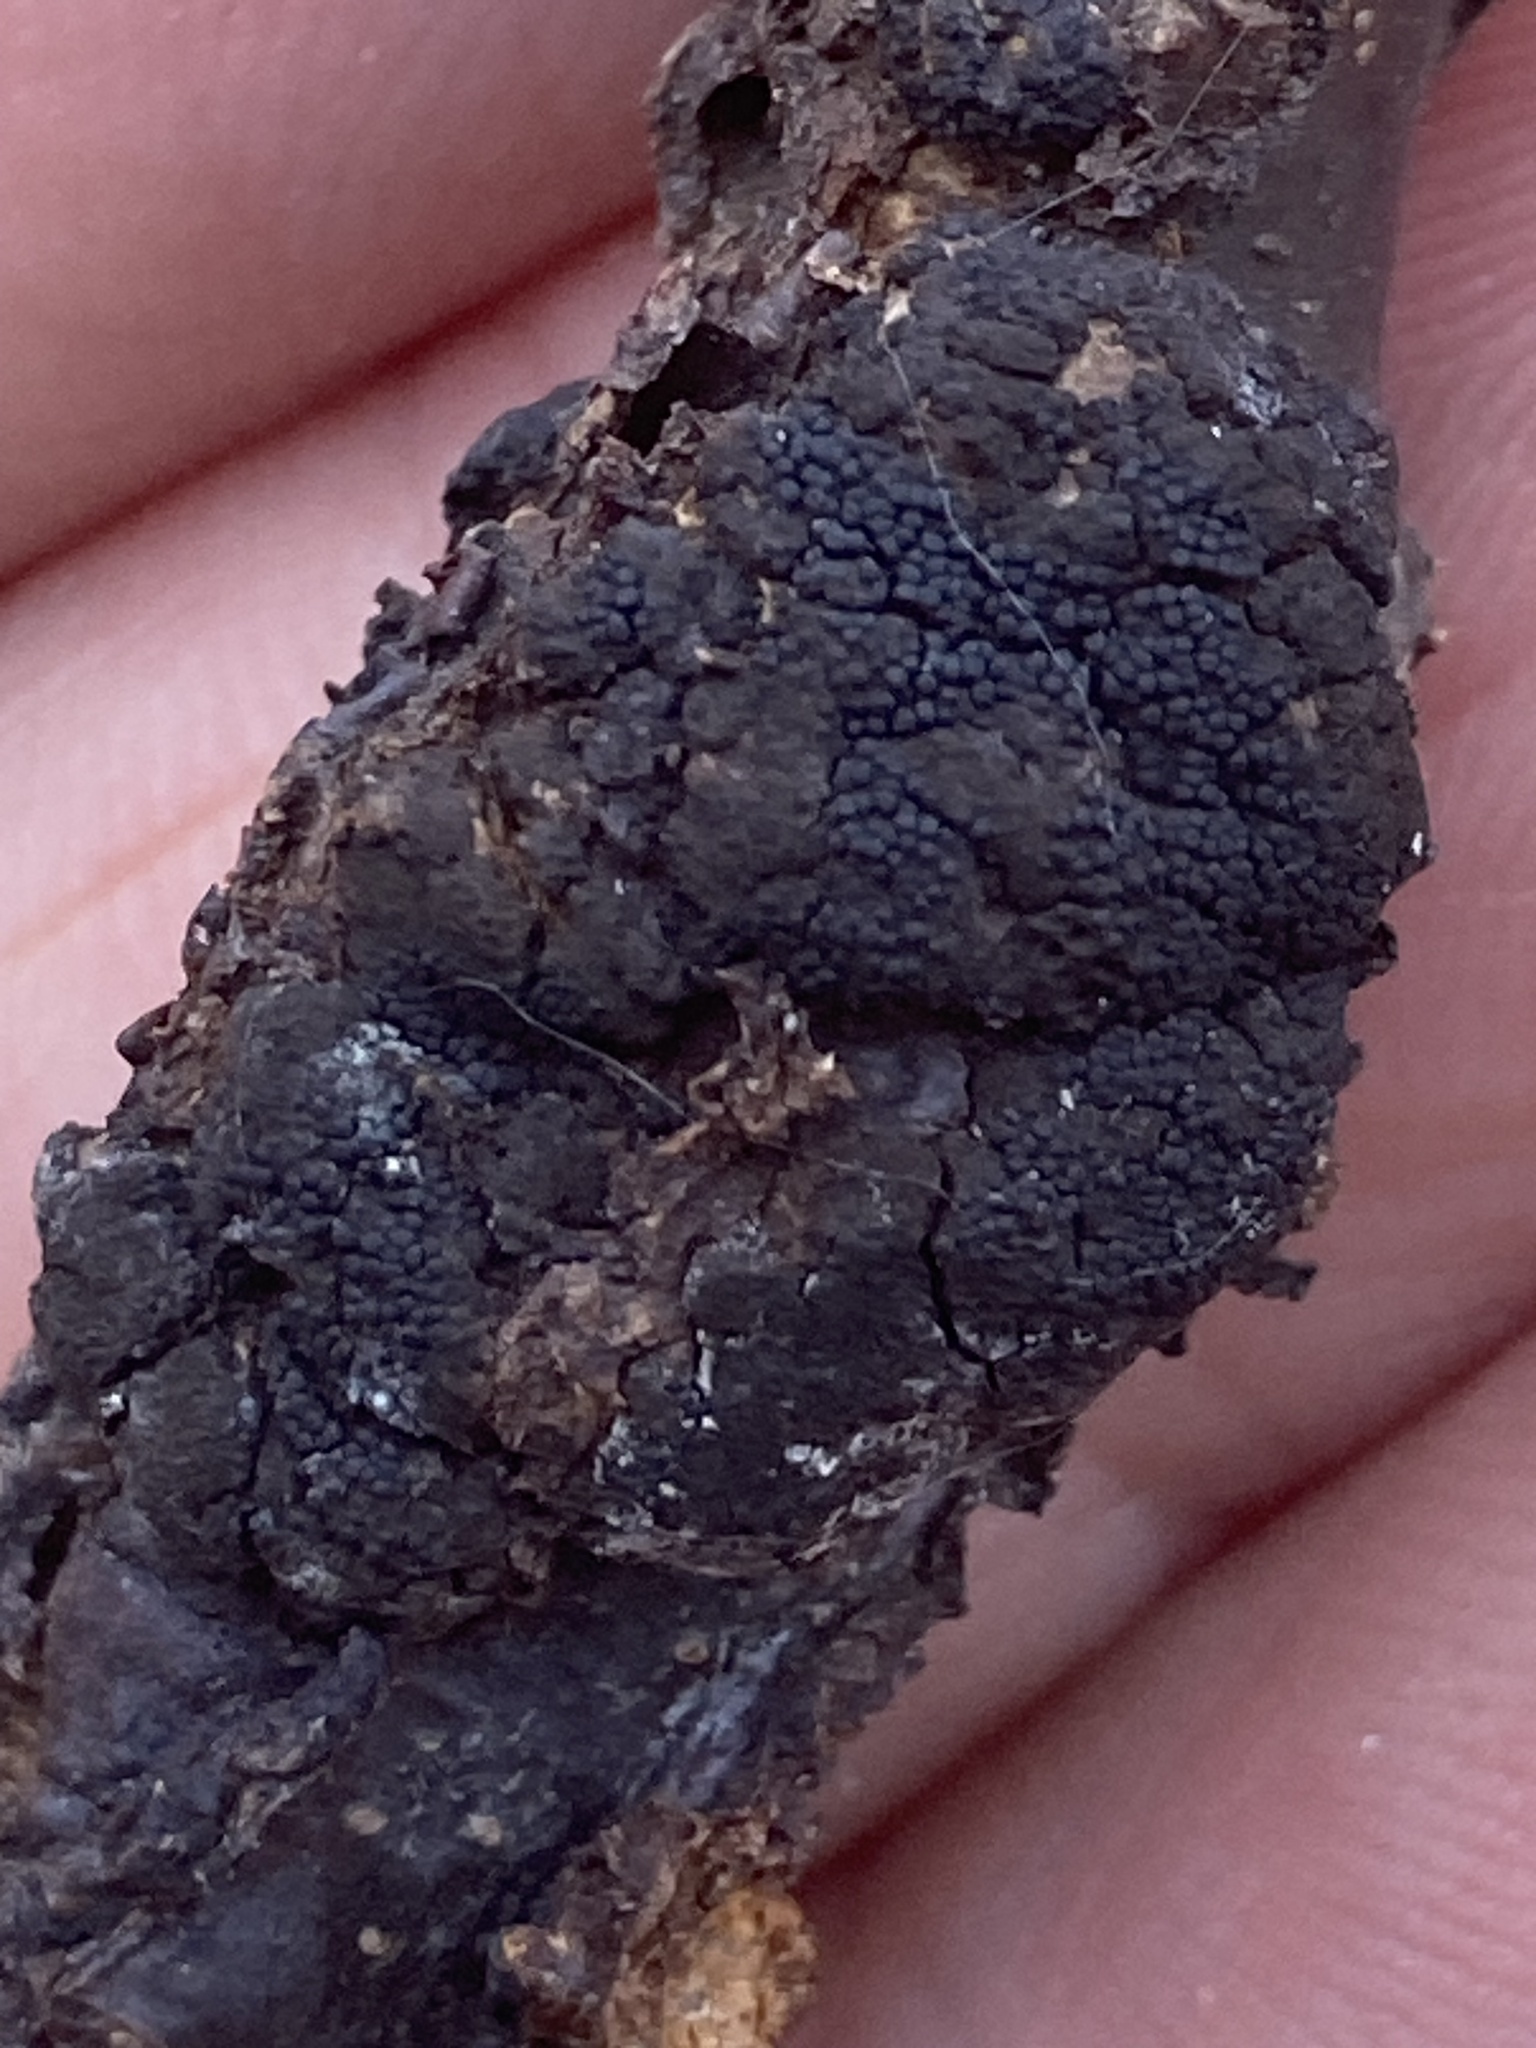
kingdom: Fungi
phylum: Ascomycota
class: Dothideomycetes
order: Venturiales
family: Venturiaceae
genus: Apiosporina
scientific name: Apiosporina morbosa
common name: Black knot
